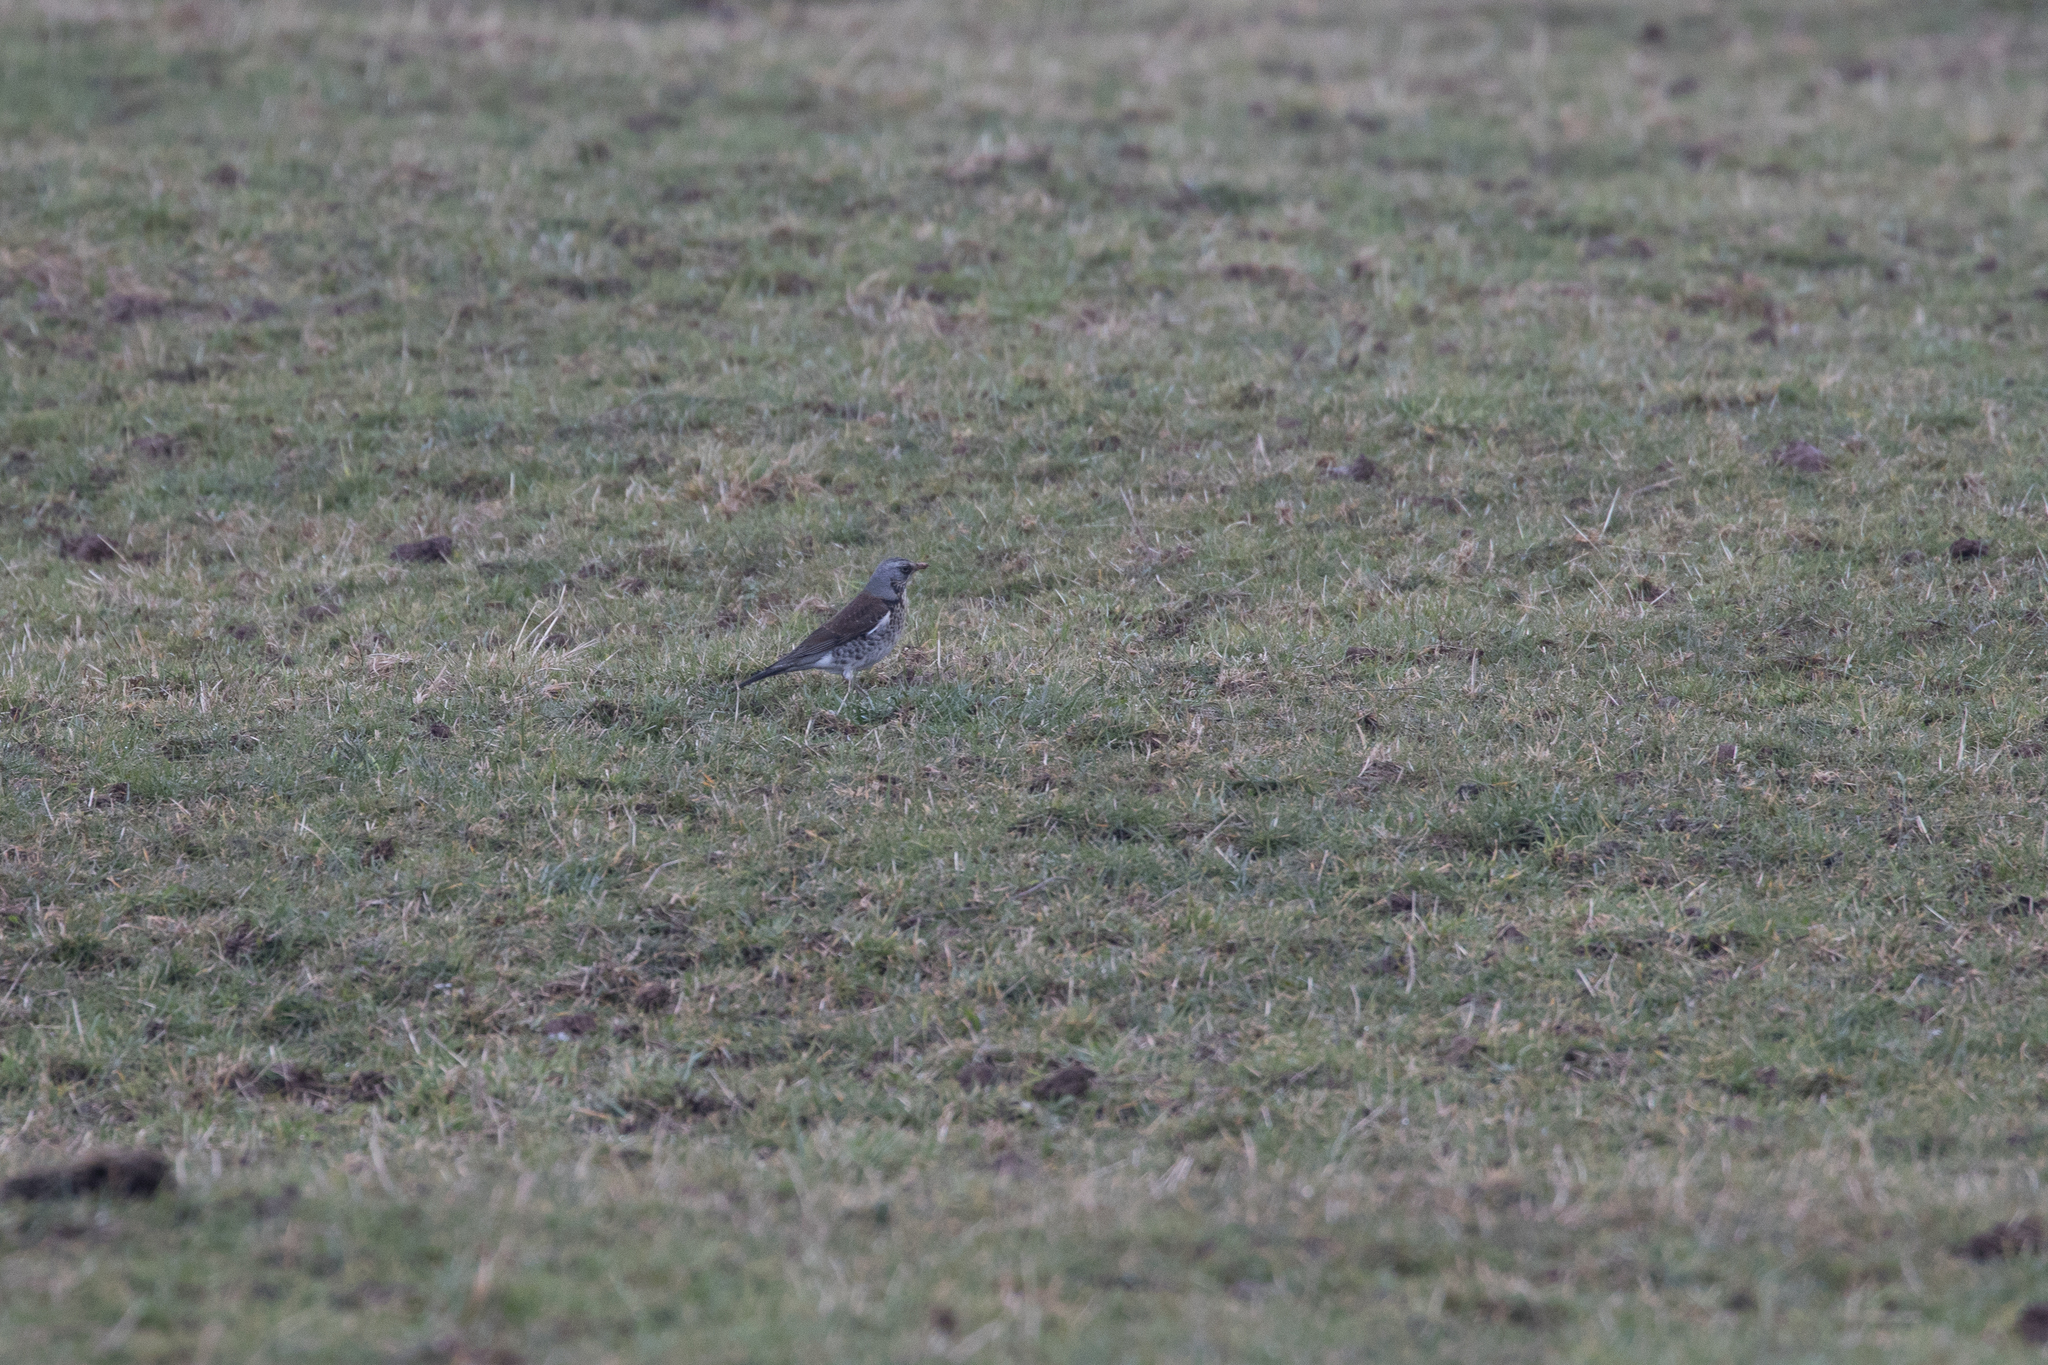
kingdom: Animalia
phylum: Chordata
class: Aves
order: Passeriformes
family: Turdidae
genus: Turdus
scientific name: Turdus pilaris
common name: Fieldfare
